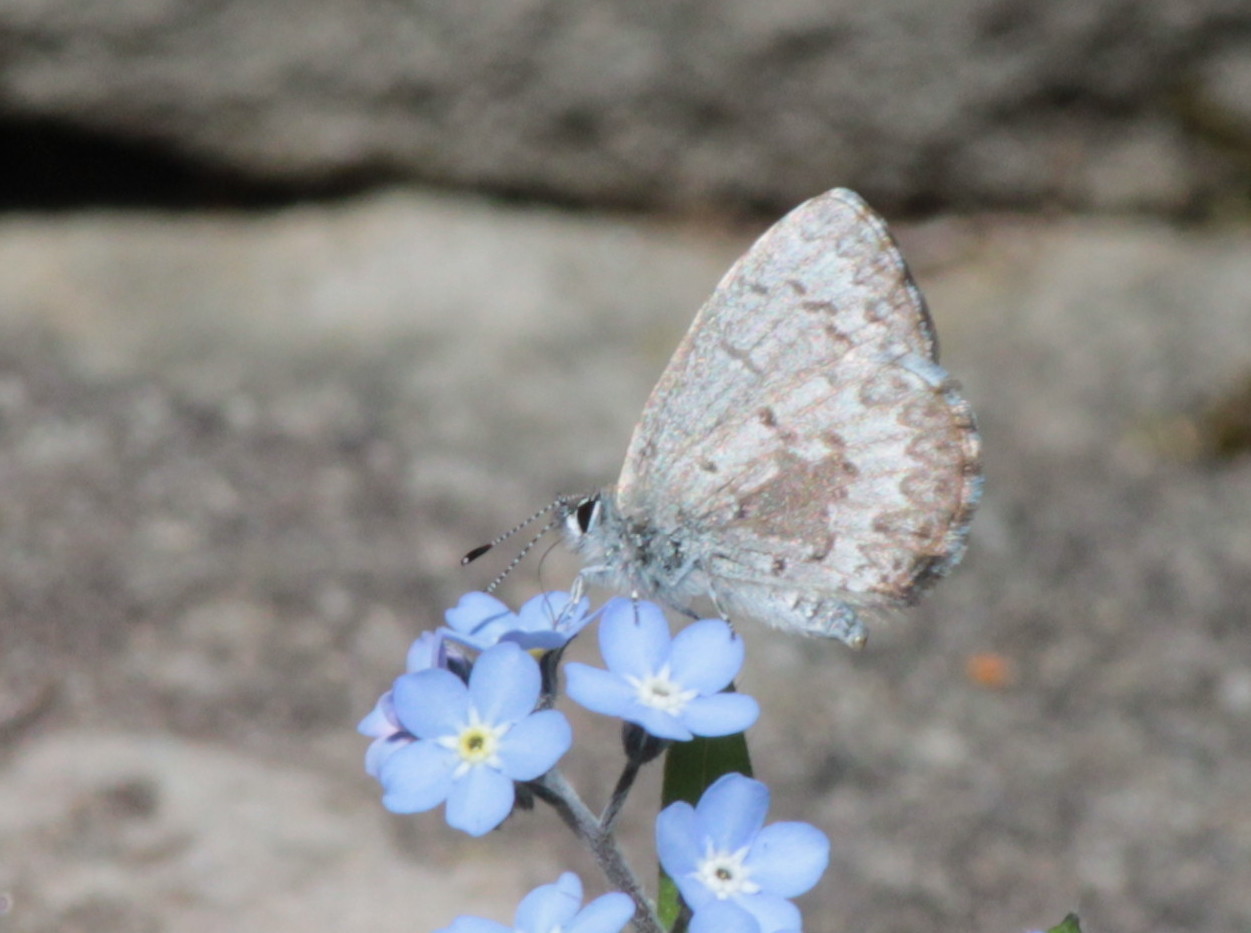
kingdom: Animalia
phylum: Arthropoda
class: Insecta
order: Lepidoptera
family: Lycaenidae
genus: Celastrina
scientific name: Celastrina lucia
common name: Lucia azure
